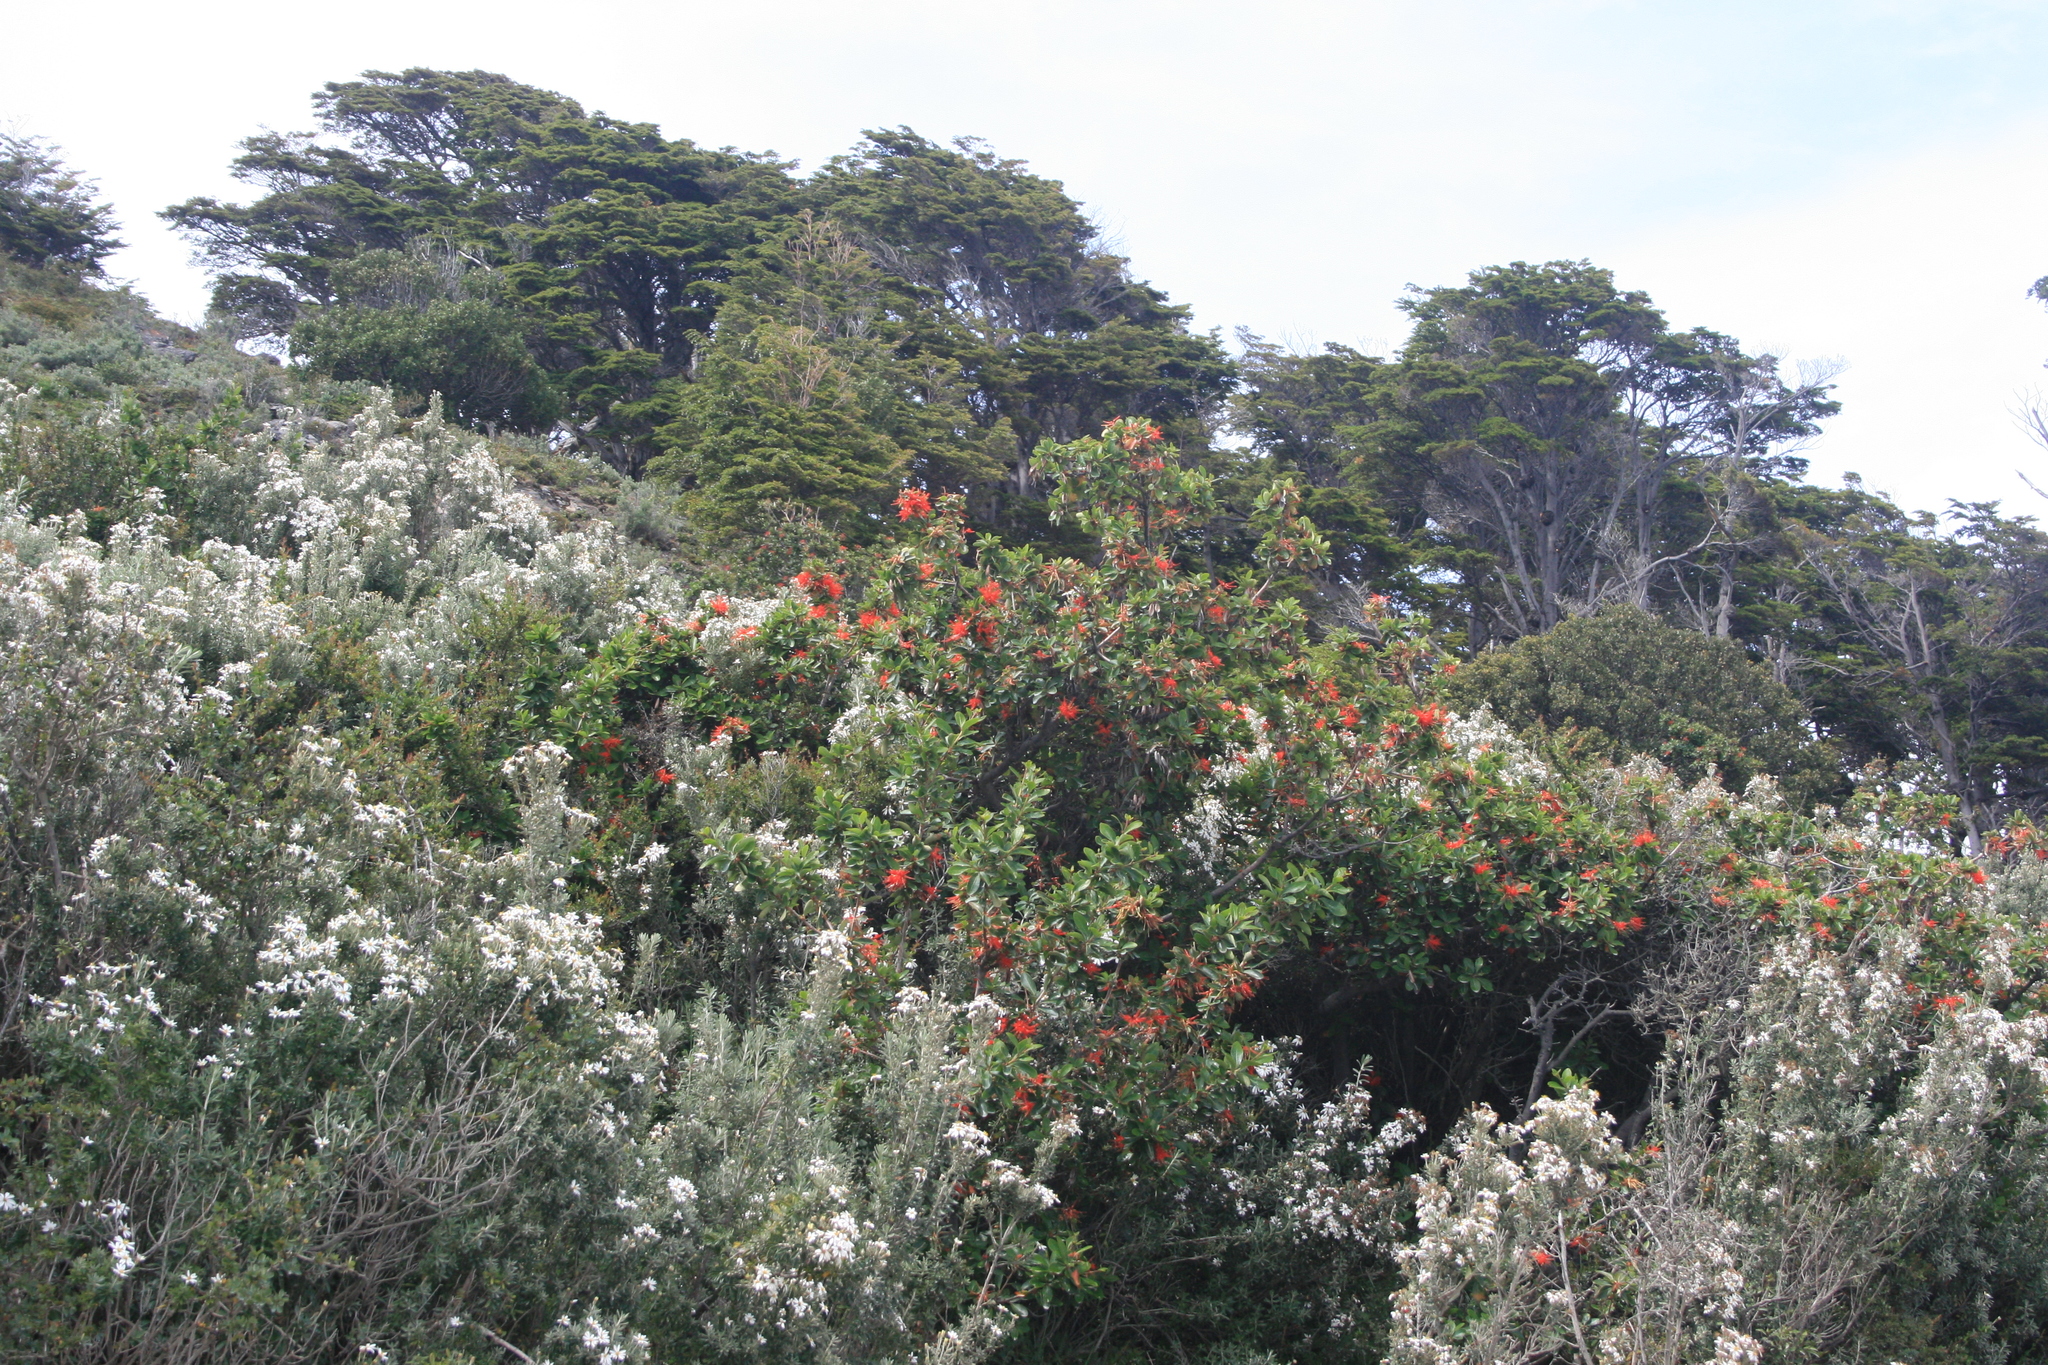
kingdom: Plantae
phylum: Tracheophyta
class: Magnoliopsida
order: Asterales
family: Asteraceae
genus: Chiliotrichum
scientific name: Chiliotrichum diffusum
